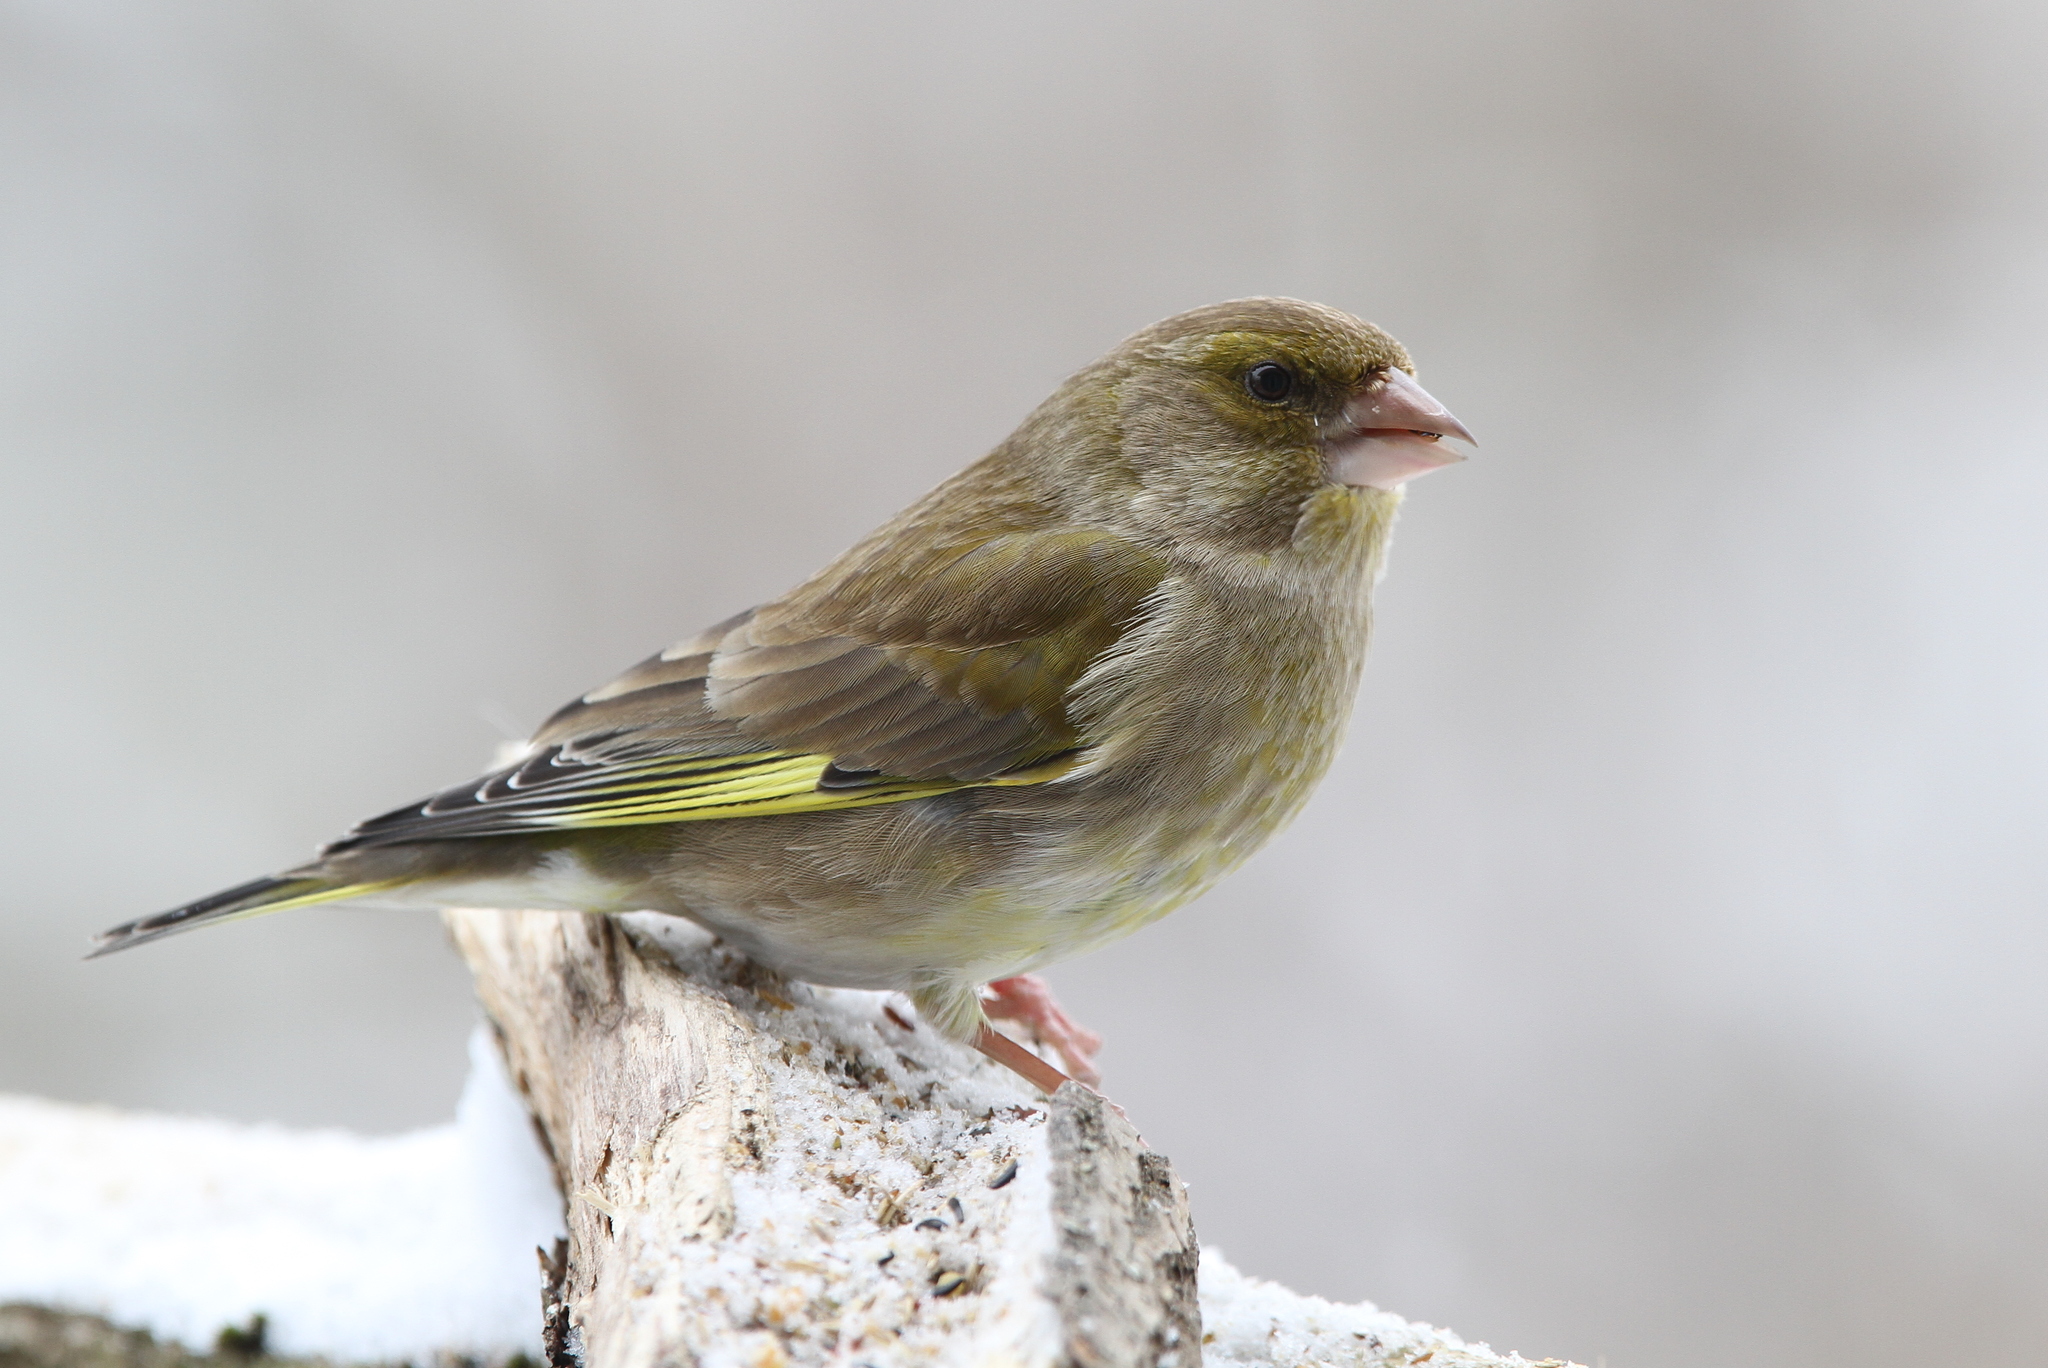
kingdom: Plantae
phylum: Tracheophyta
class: Liliopsida
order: Poales
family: Poaceae
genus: Chloris
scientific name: Chloris chloris
